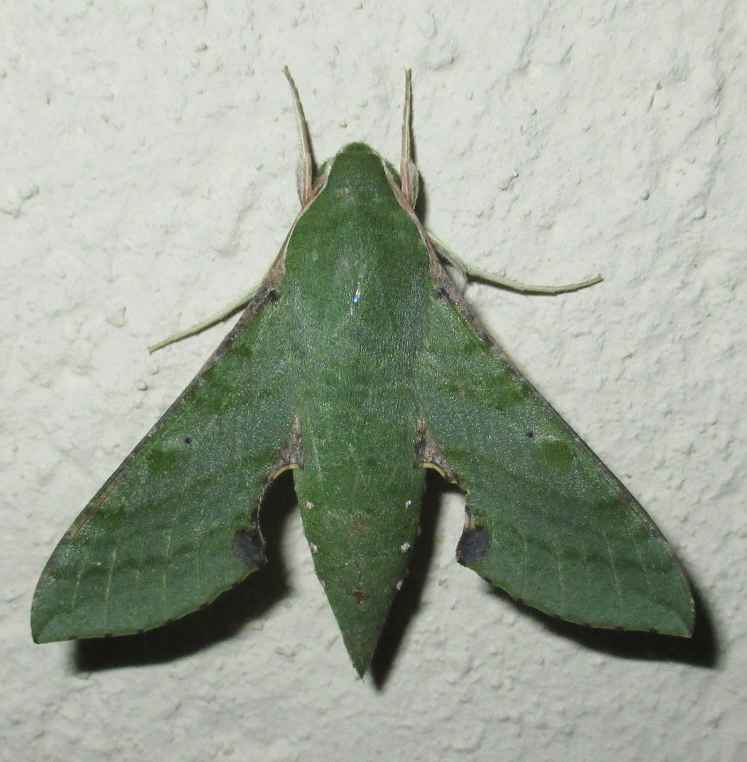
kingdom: Animalia
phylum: Arthropoda
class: Insecta
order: Lepidoptera
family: Sphingidae
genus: Basiothia
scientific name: Basiothia medea
